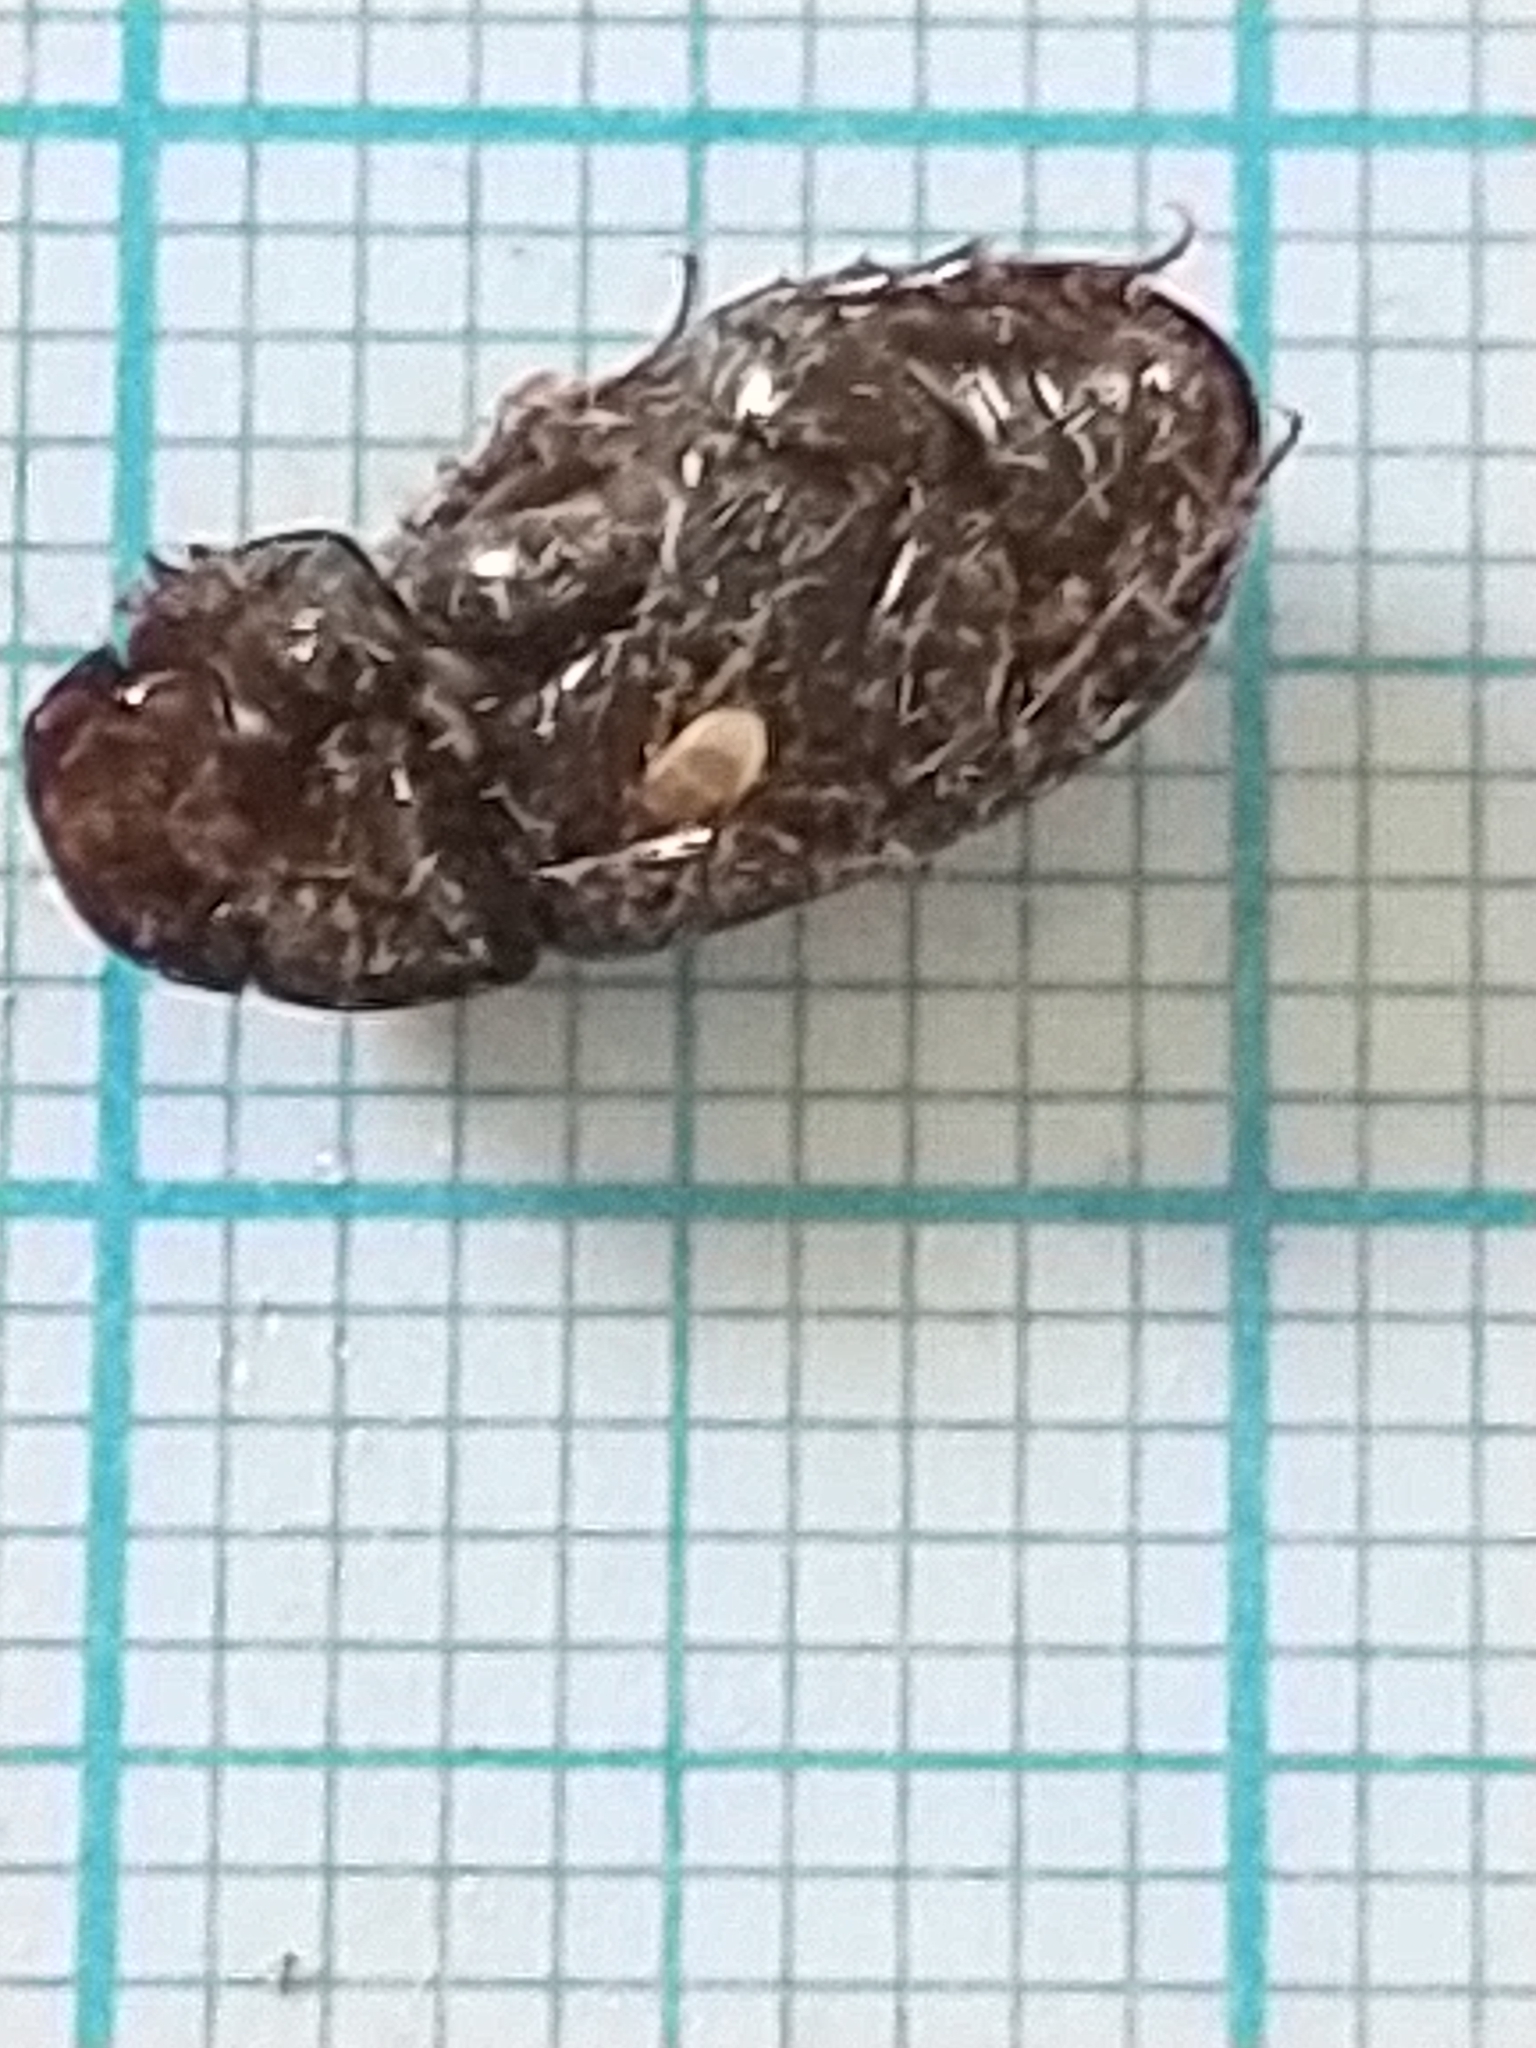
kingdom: Animalia
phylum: Arthropoda
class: Insecta
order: Coleoptera
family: Scarabaeidae
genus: Acrossus
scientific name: Acrossus rufipes
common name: Night-flying dung beetle
